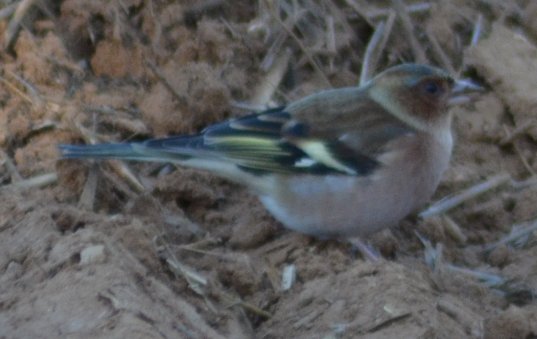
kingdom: Animalia
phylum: Chordata
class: Aves
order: Passeriformes
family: Fringillidae
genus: Fringilla
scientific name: Fringilla coelebs
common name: Common chaffinch
